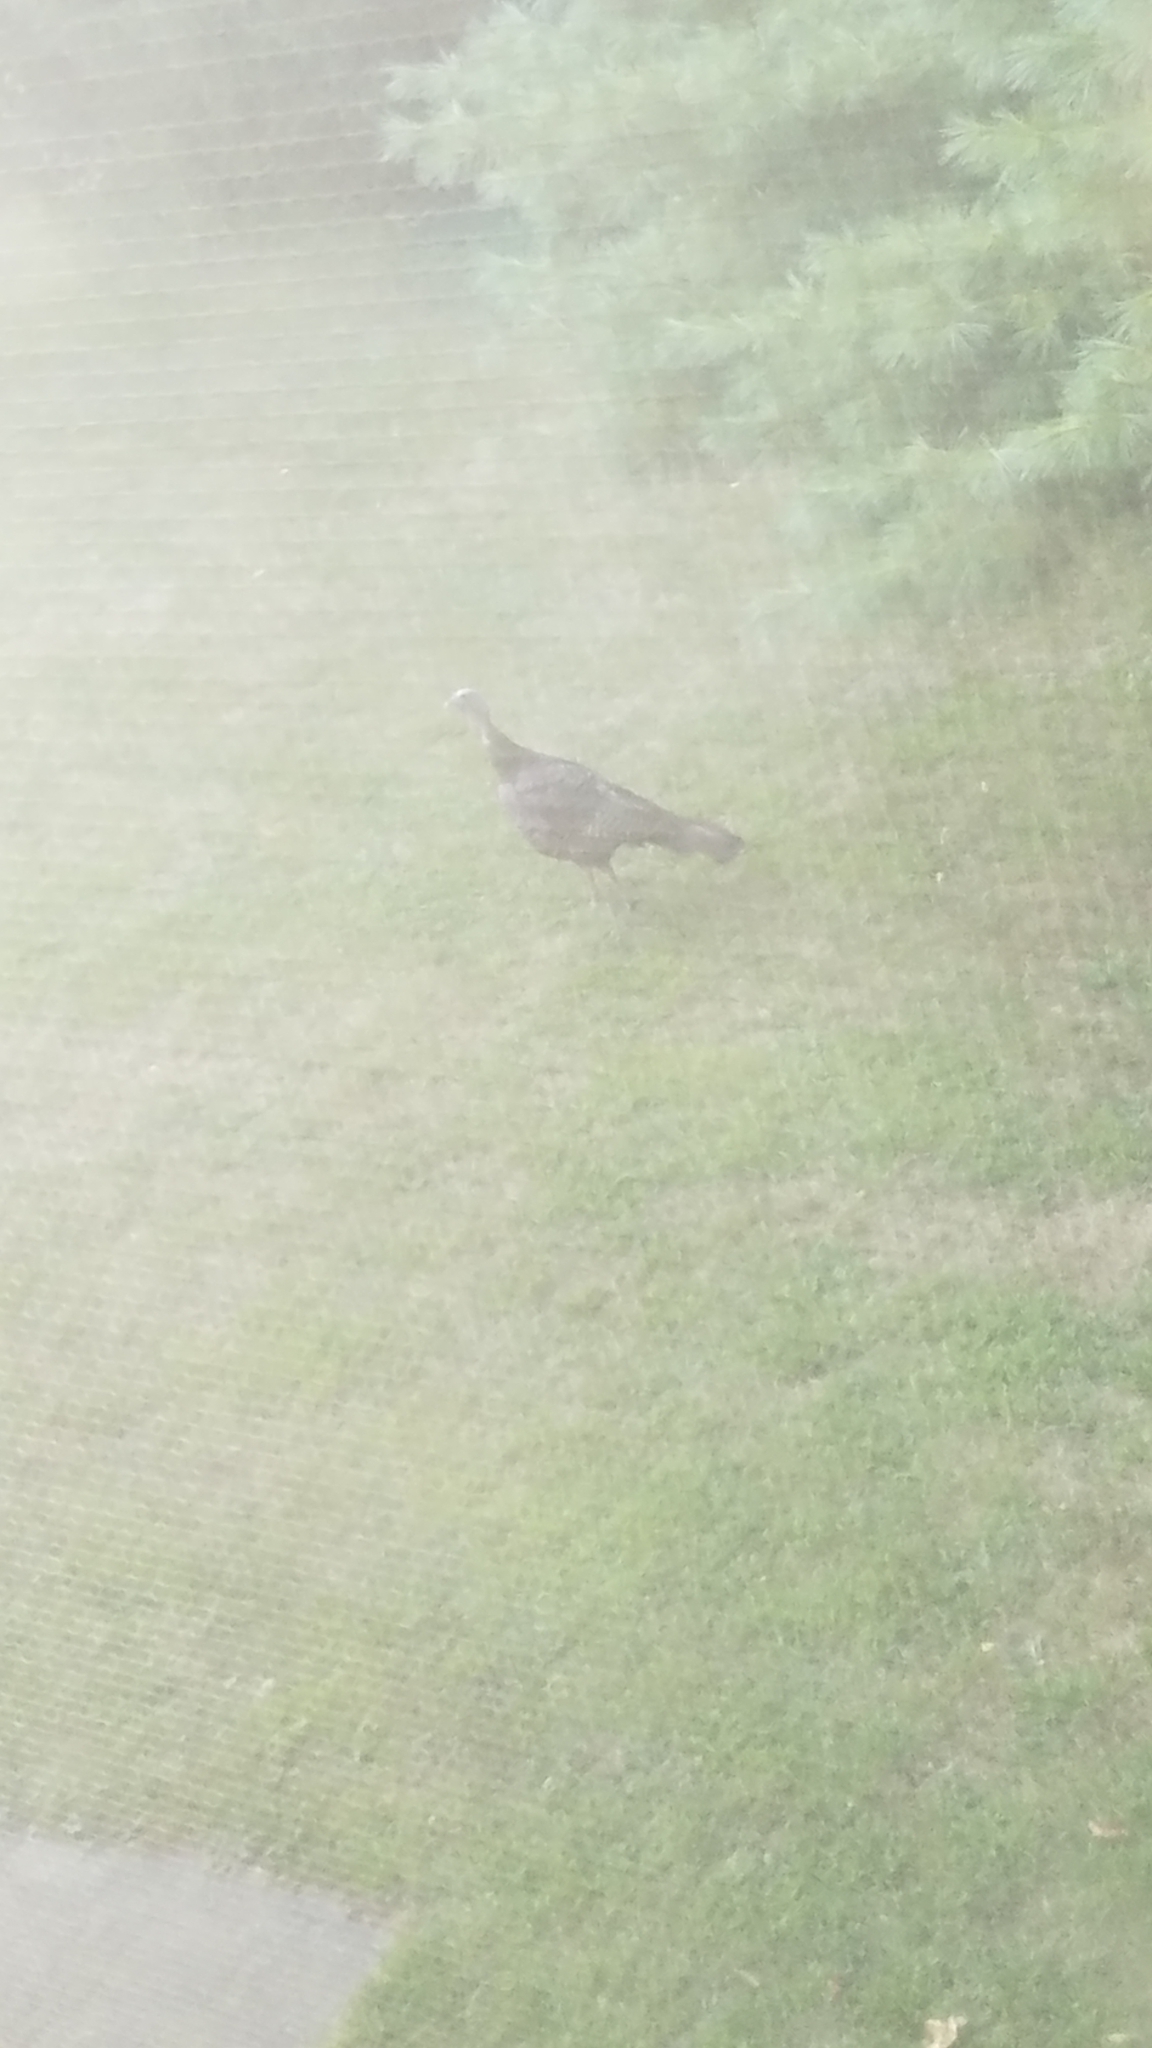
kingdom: Animalia
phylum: Chordata
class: Aves
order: Galliformes
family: Phasianidae
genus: Meleagris
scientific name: Meleagris gallopavo
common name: Wild turkey
